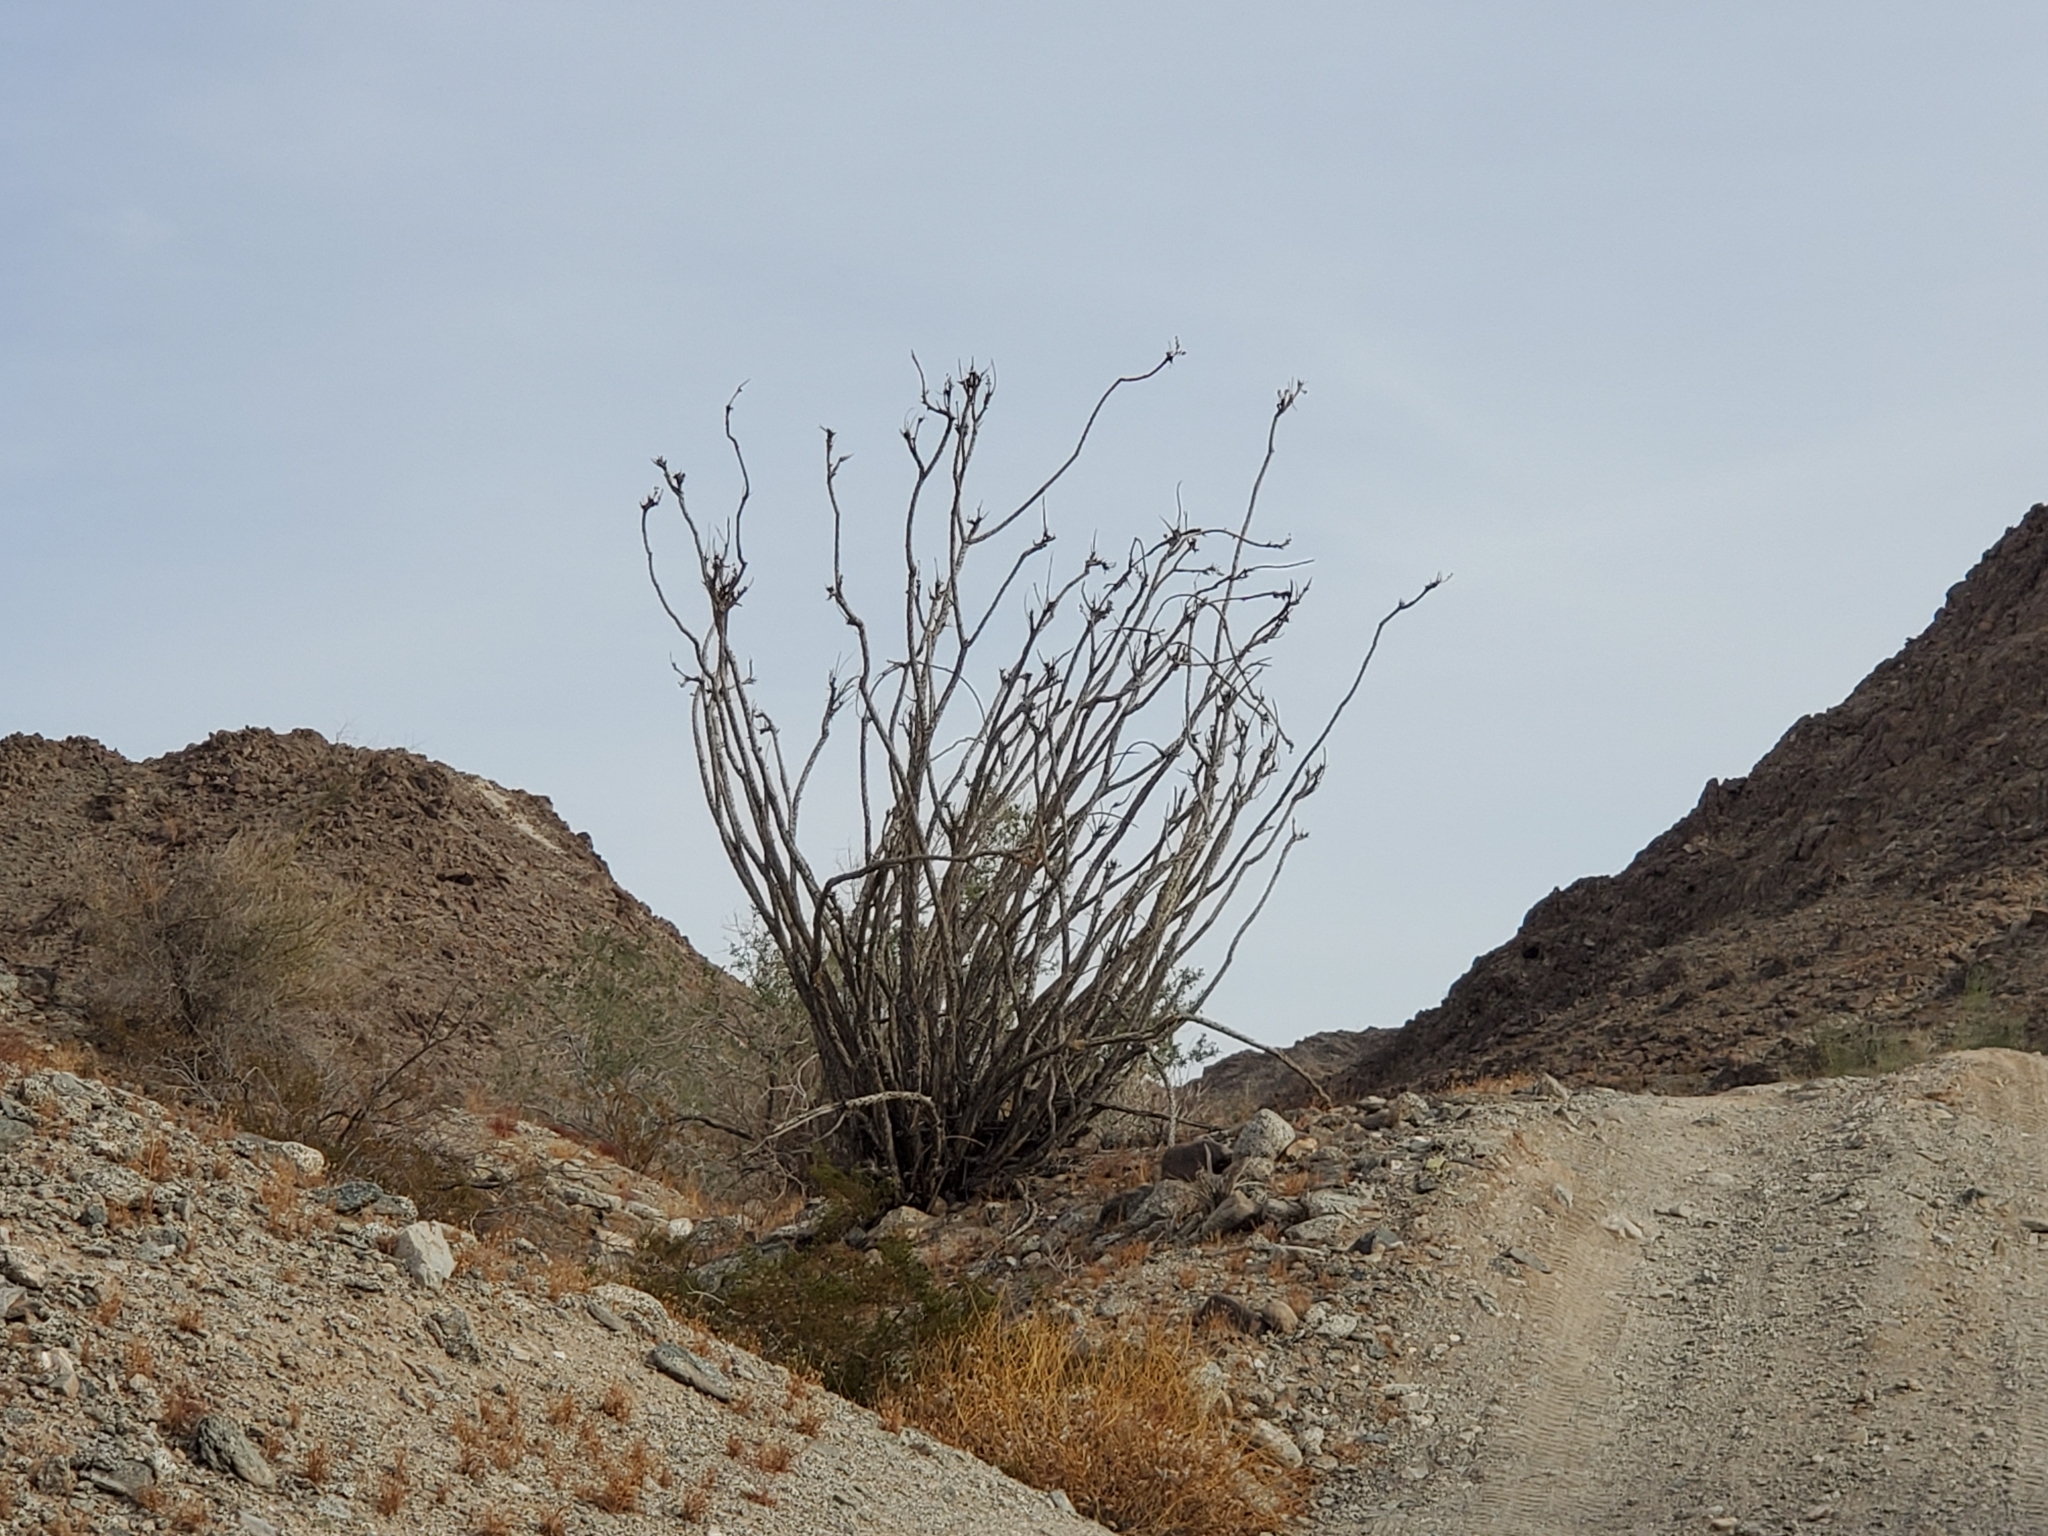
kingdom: Plantae
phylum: Tracheophyta
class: Magnoliopsida
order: Ericales
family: Fouquieriaceae
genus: Fouquieria
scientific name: Fouquieria splendens
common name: Vine-cactus
